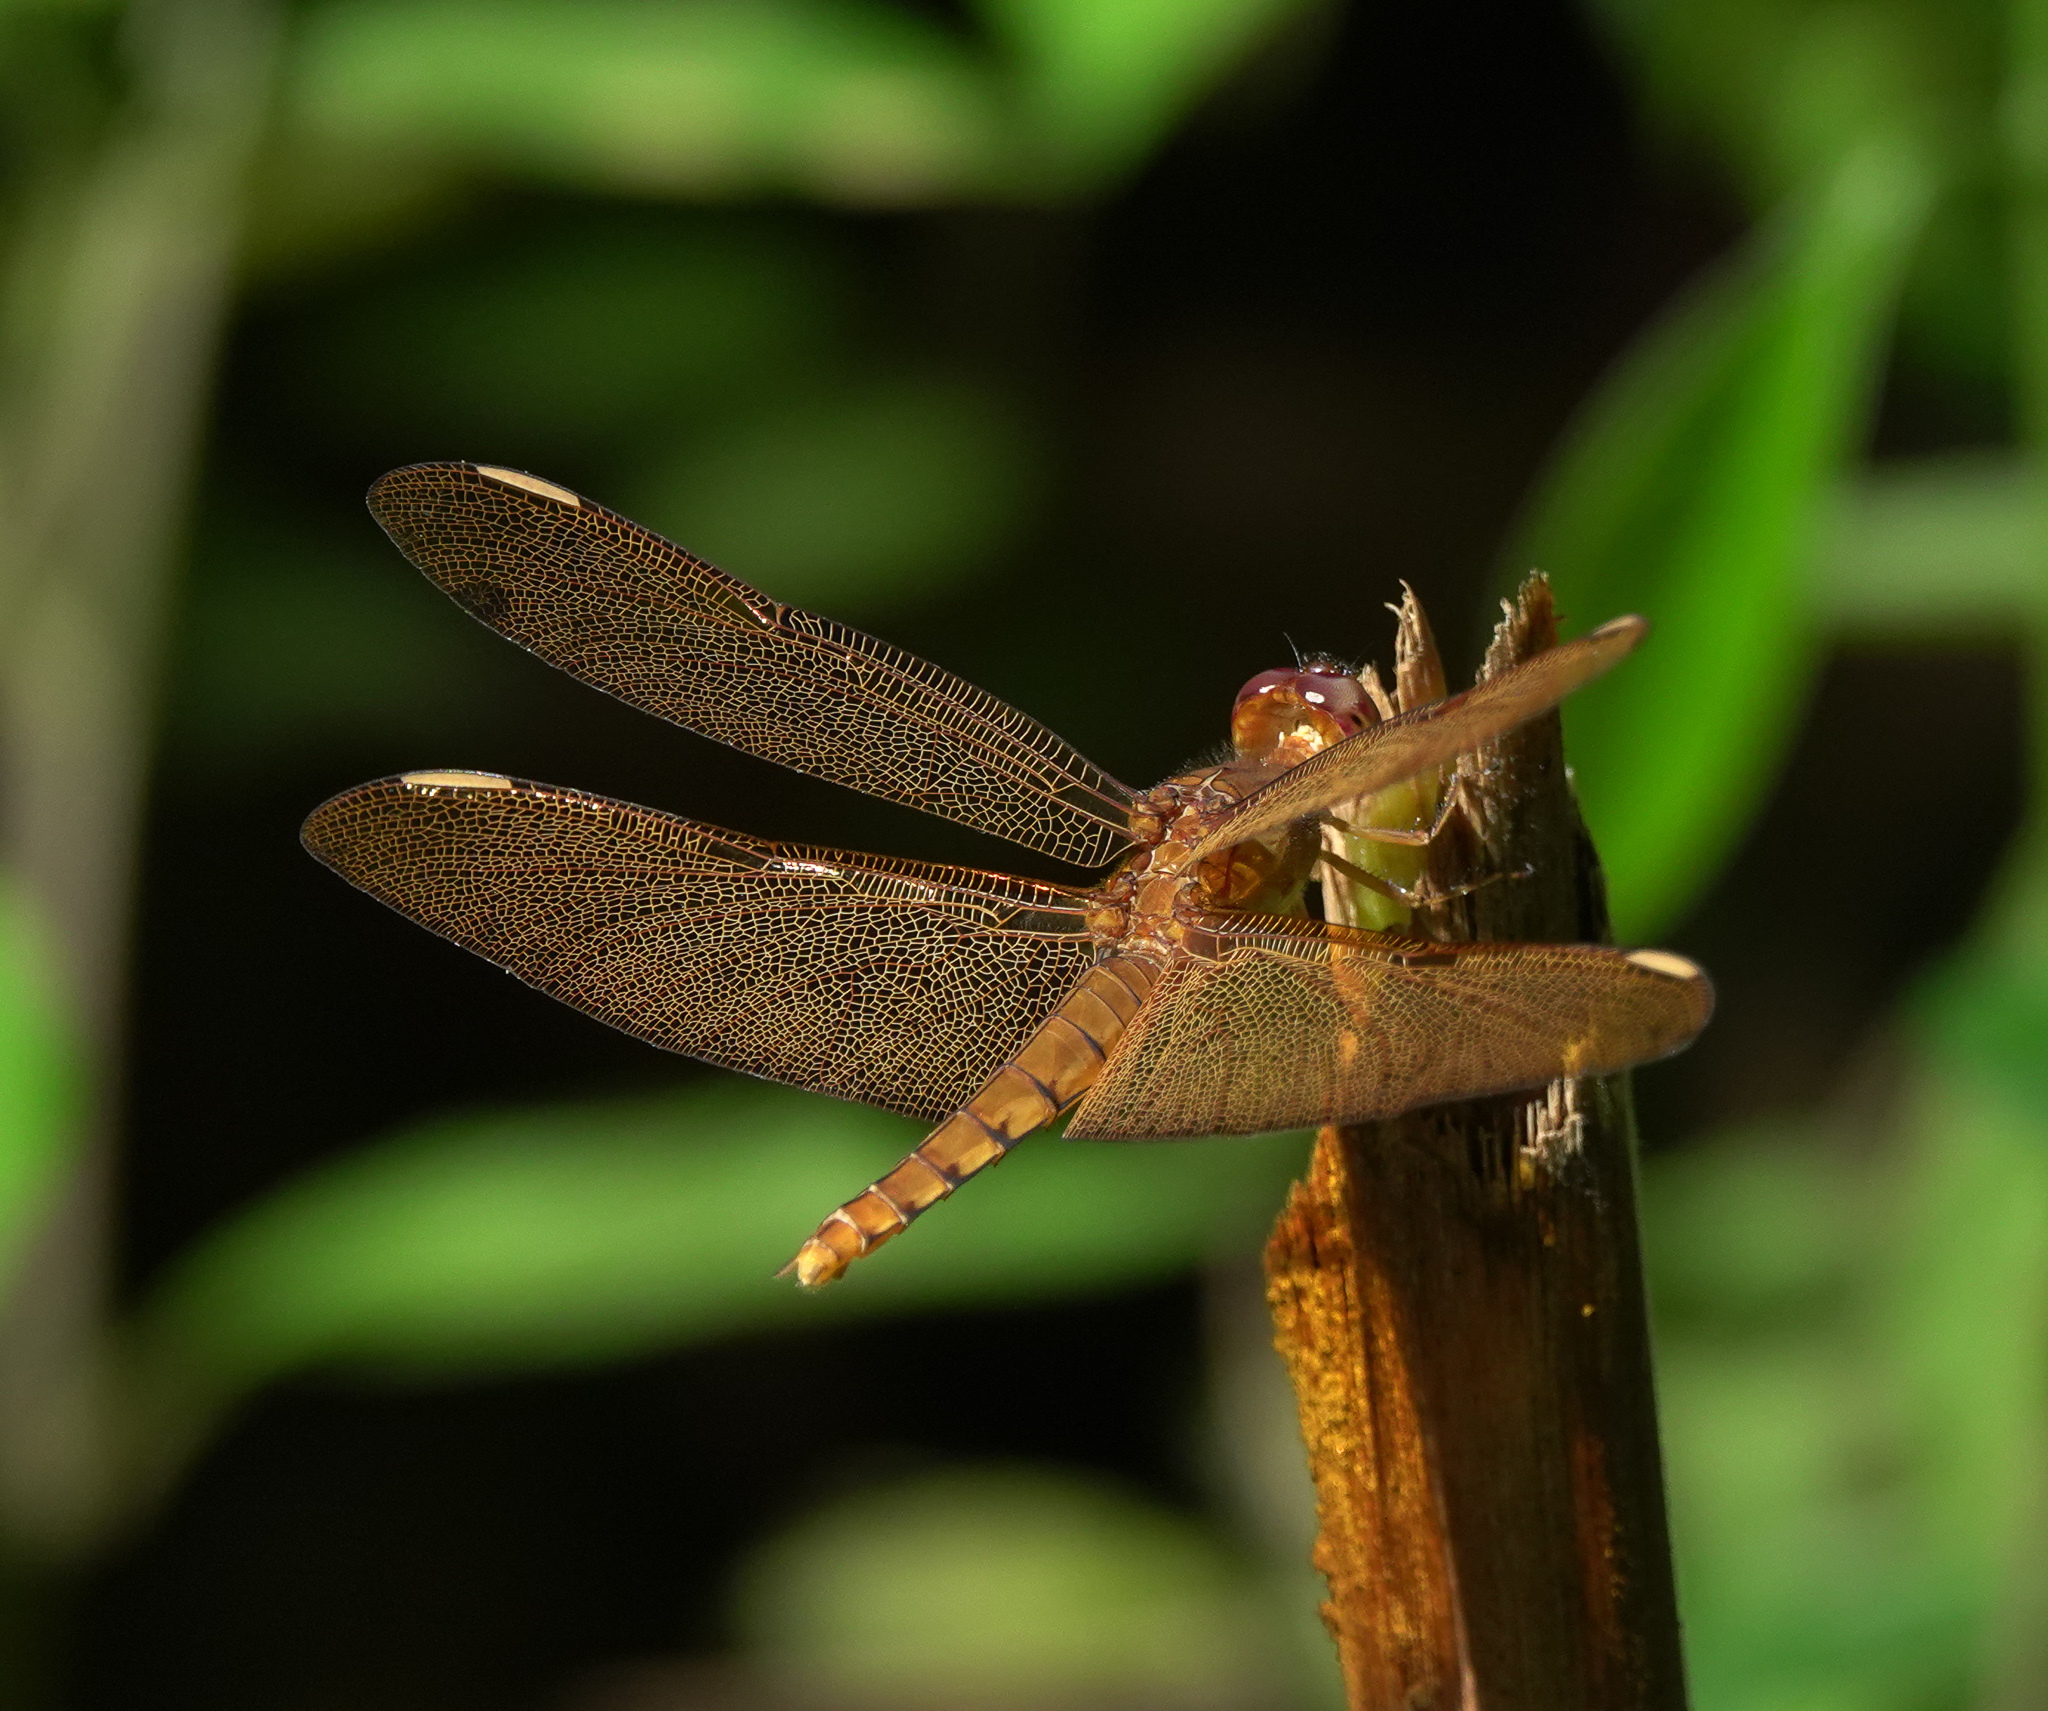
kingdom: Animalia
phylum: Arthropoda
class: Insecta
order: Odonata
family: Libellulidae
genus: Neurothemis
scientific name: Neurothemis fulvia
